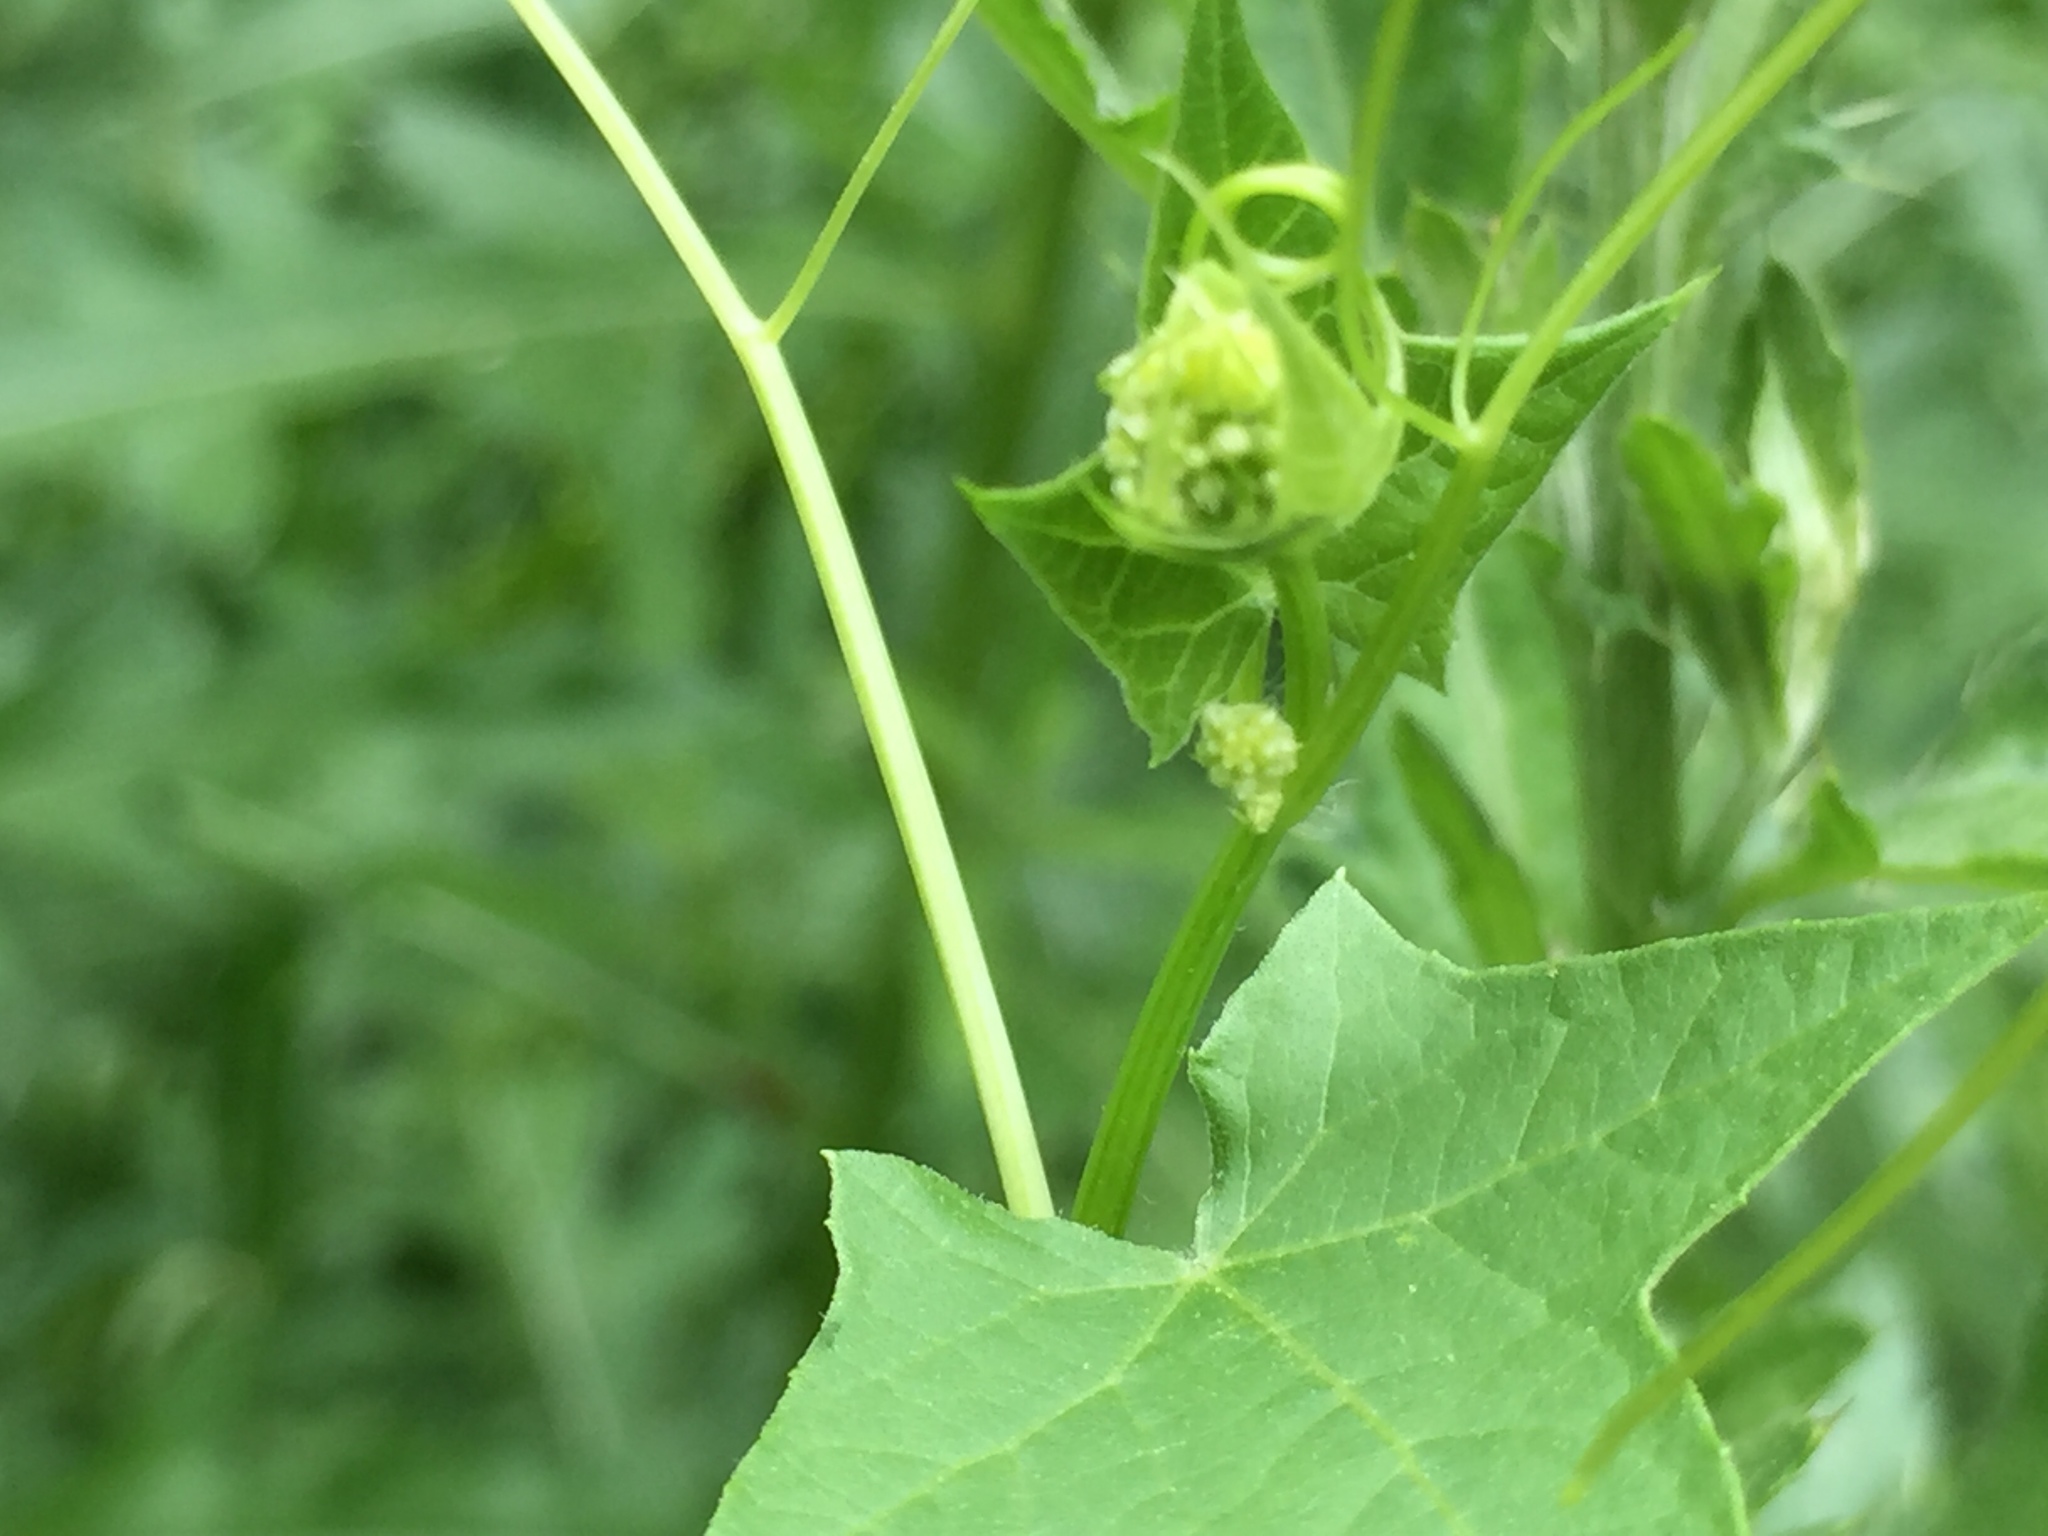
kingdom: Plantae
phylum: Tracheophyta
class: Magnoliopsida
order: Cucurbitales
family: Cucurbitaceae
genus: Echinocystis
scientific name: Echinocystis lobata
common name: Wild cucumber
